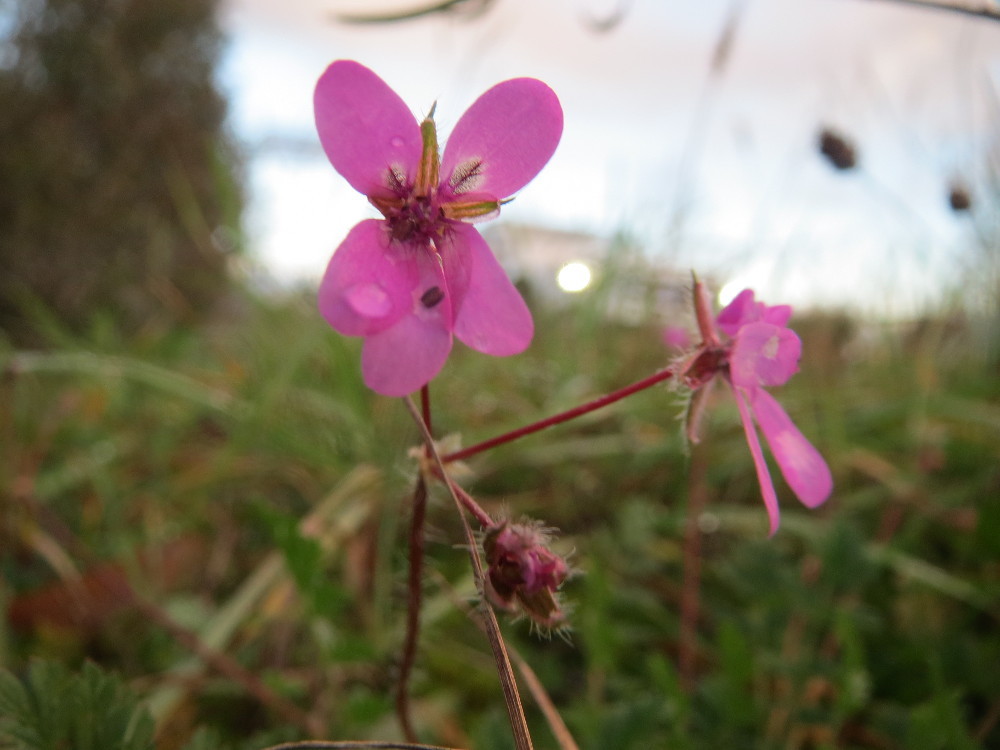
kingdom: Plantae
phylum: Tracheophyta
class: Magnoliopsida
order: Geraniales
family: Geraniaceae
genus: Erodium
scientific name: Erodium cicutarium
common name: Common stork's-bill
